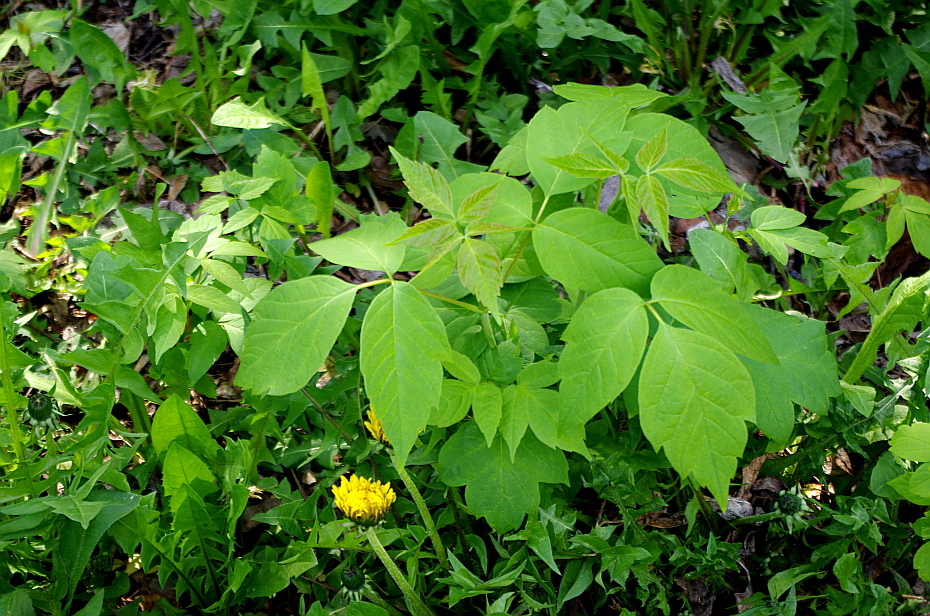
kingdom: Plantae
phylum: Tracheophyta
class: Magnoliopsida
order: Sapindales
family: Sapindaceae
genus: Acer
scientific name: Acer negundo
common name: Ashleaf maple
